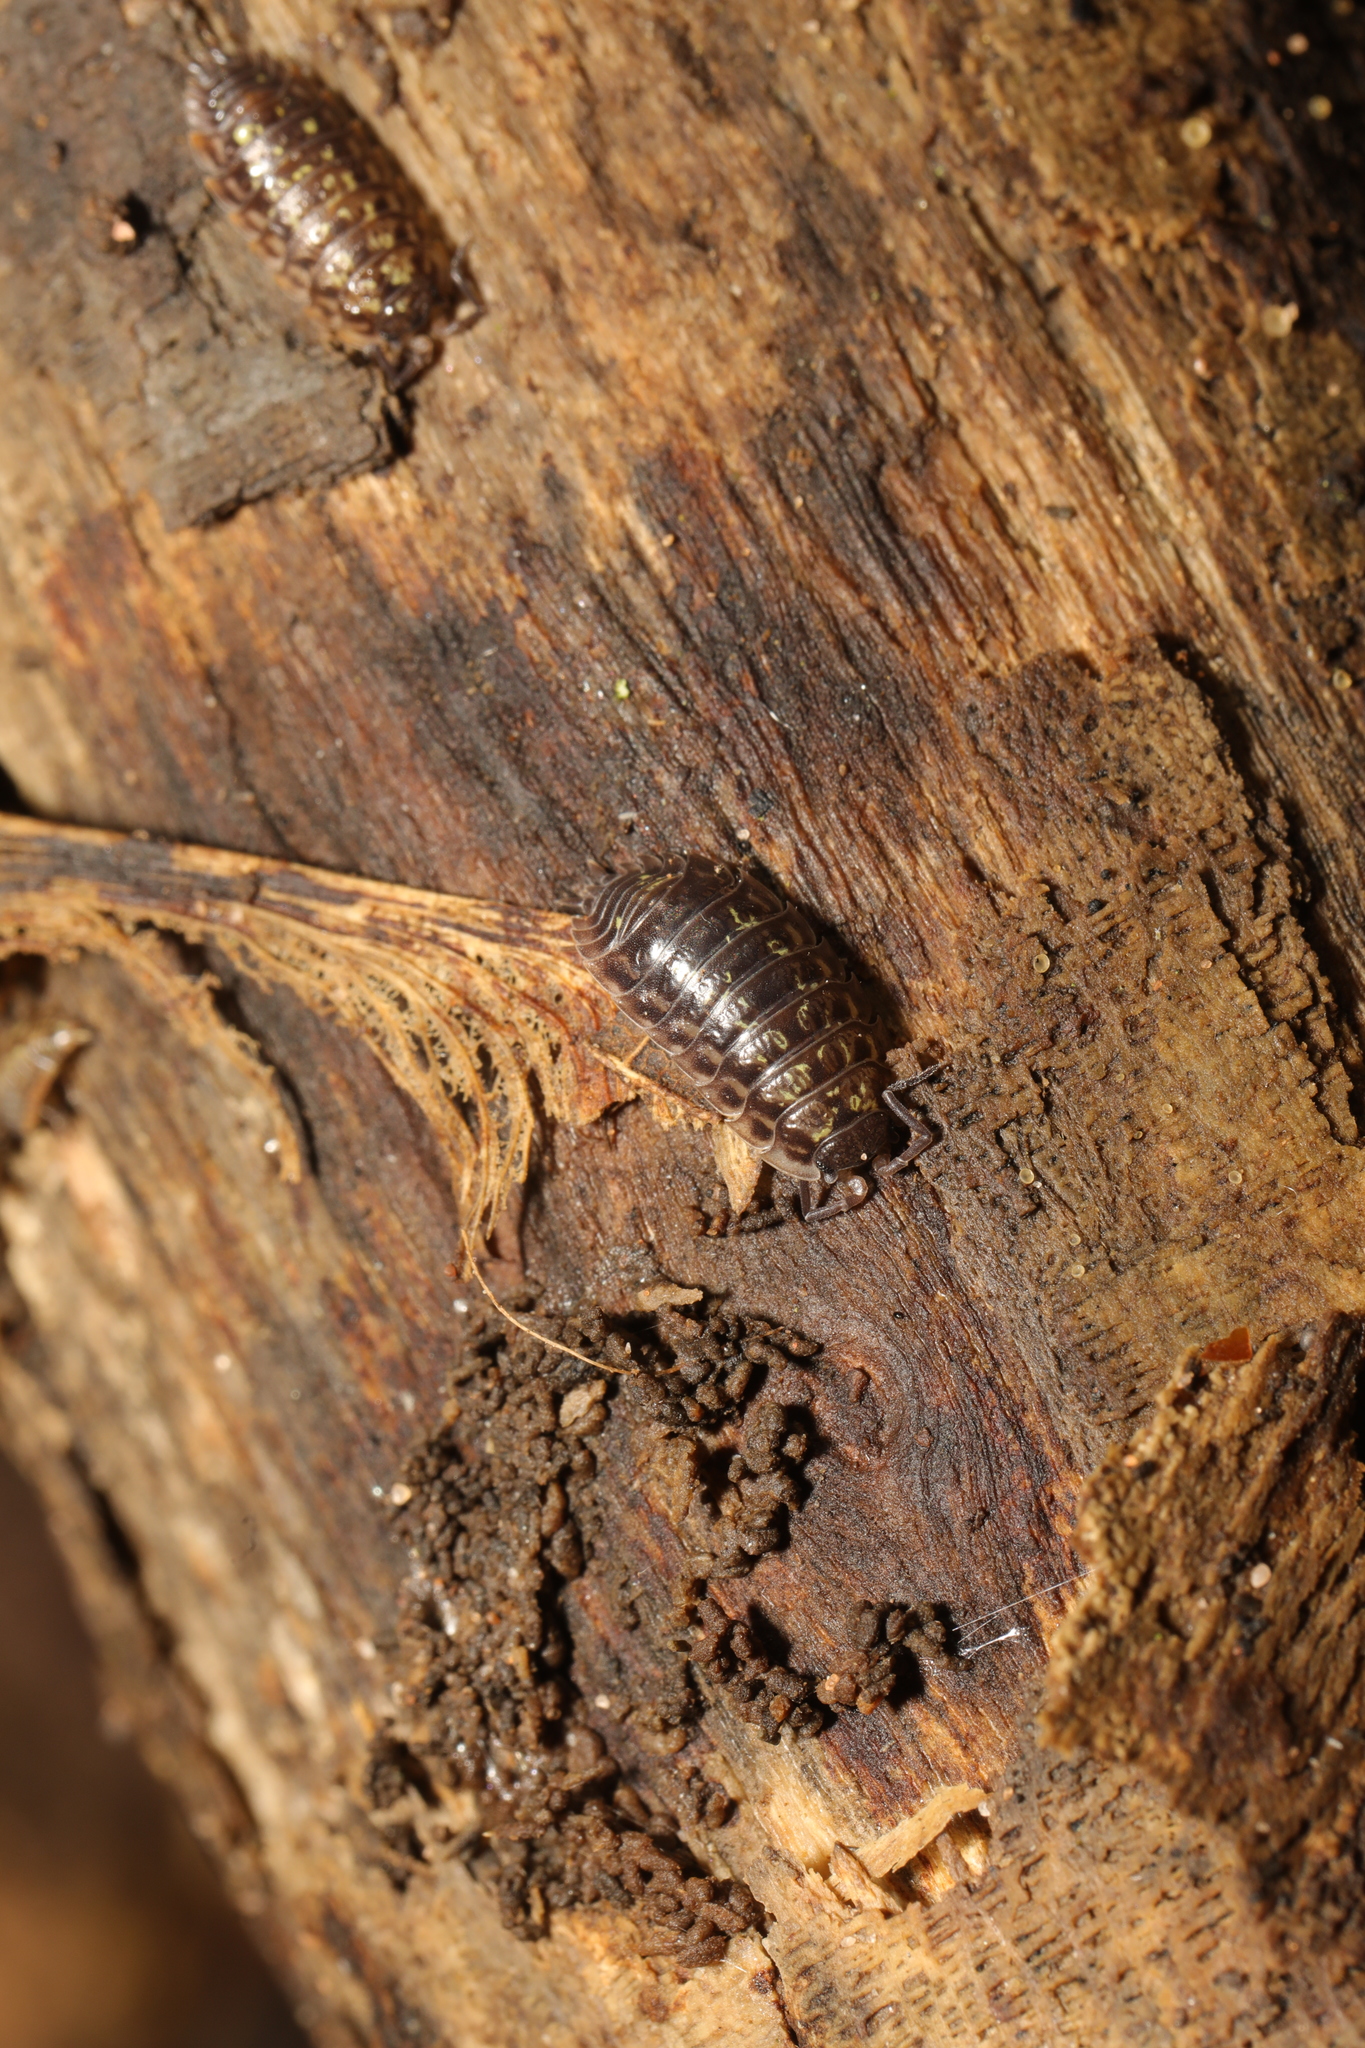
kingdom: Animalia
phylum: Arthropoda
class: Malacostraca
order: Isopoda
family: Oniscidae
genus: Oniscus
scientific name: Oniscus asellus
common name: Common shiny woodlouse
